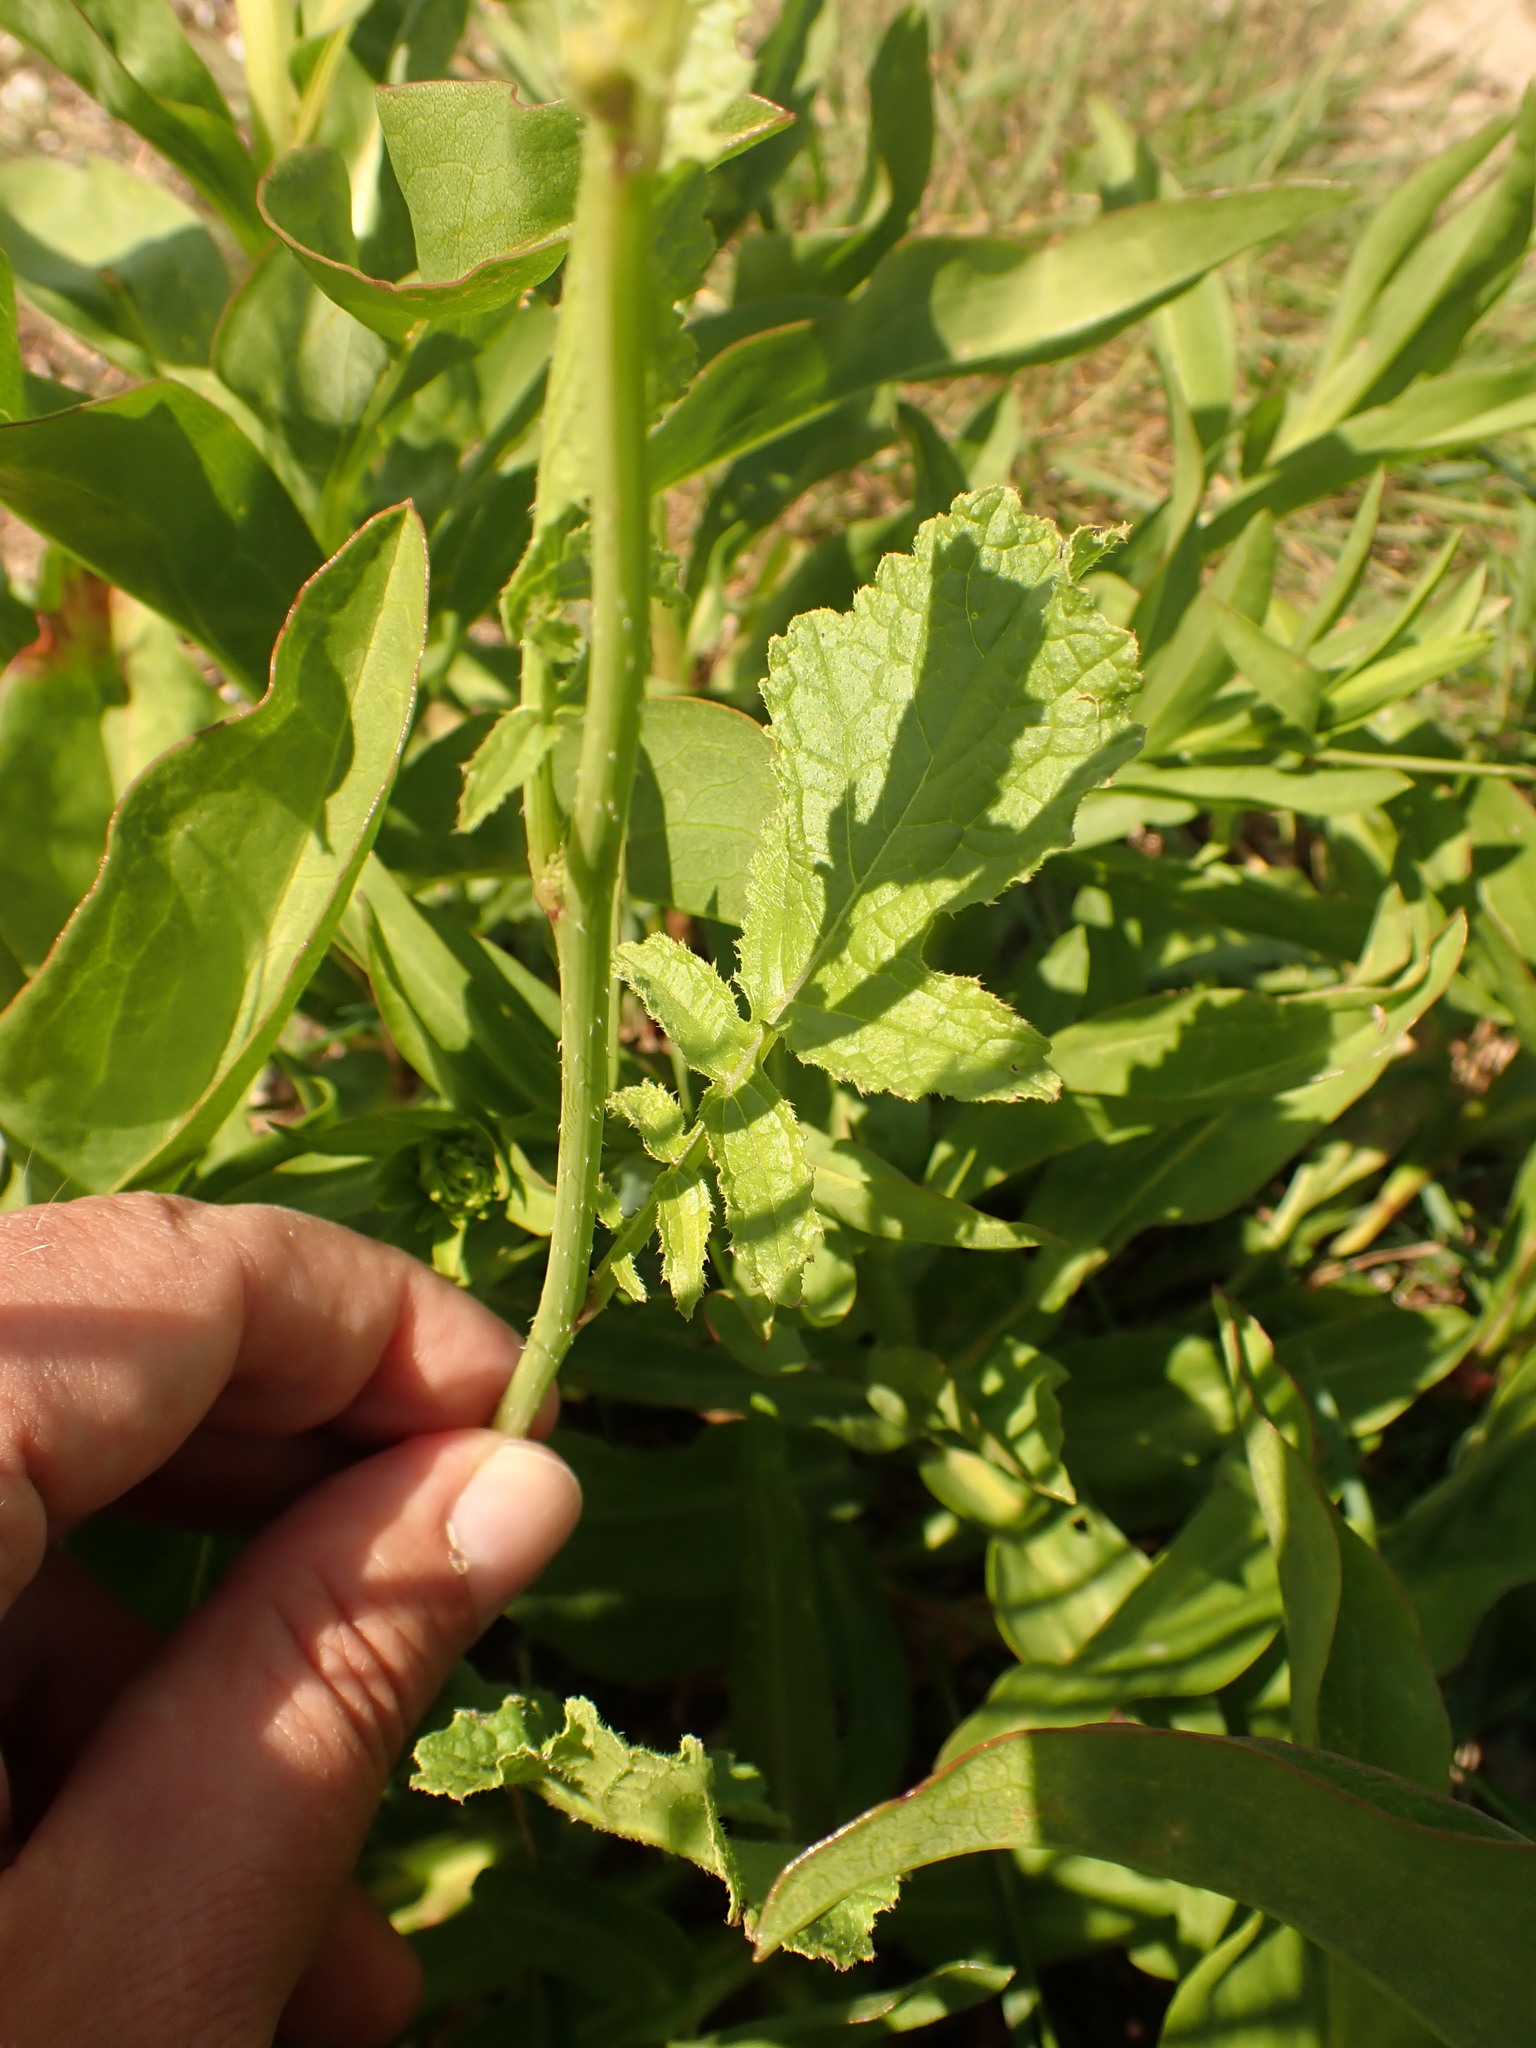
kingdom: Plantae
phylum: Tracheophyta
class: Magnoliopsida
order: Brassicales
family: Brassicaceae
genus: Raphanus
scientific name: Raphanus raphanistrum
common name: Wild radish
